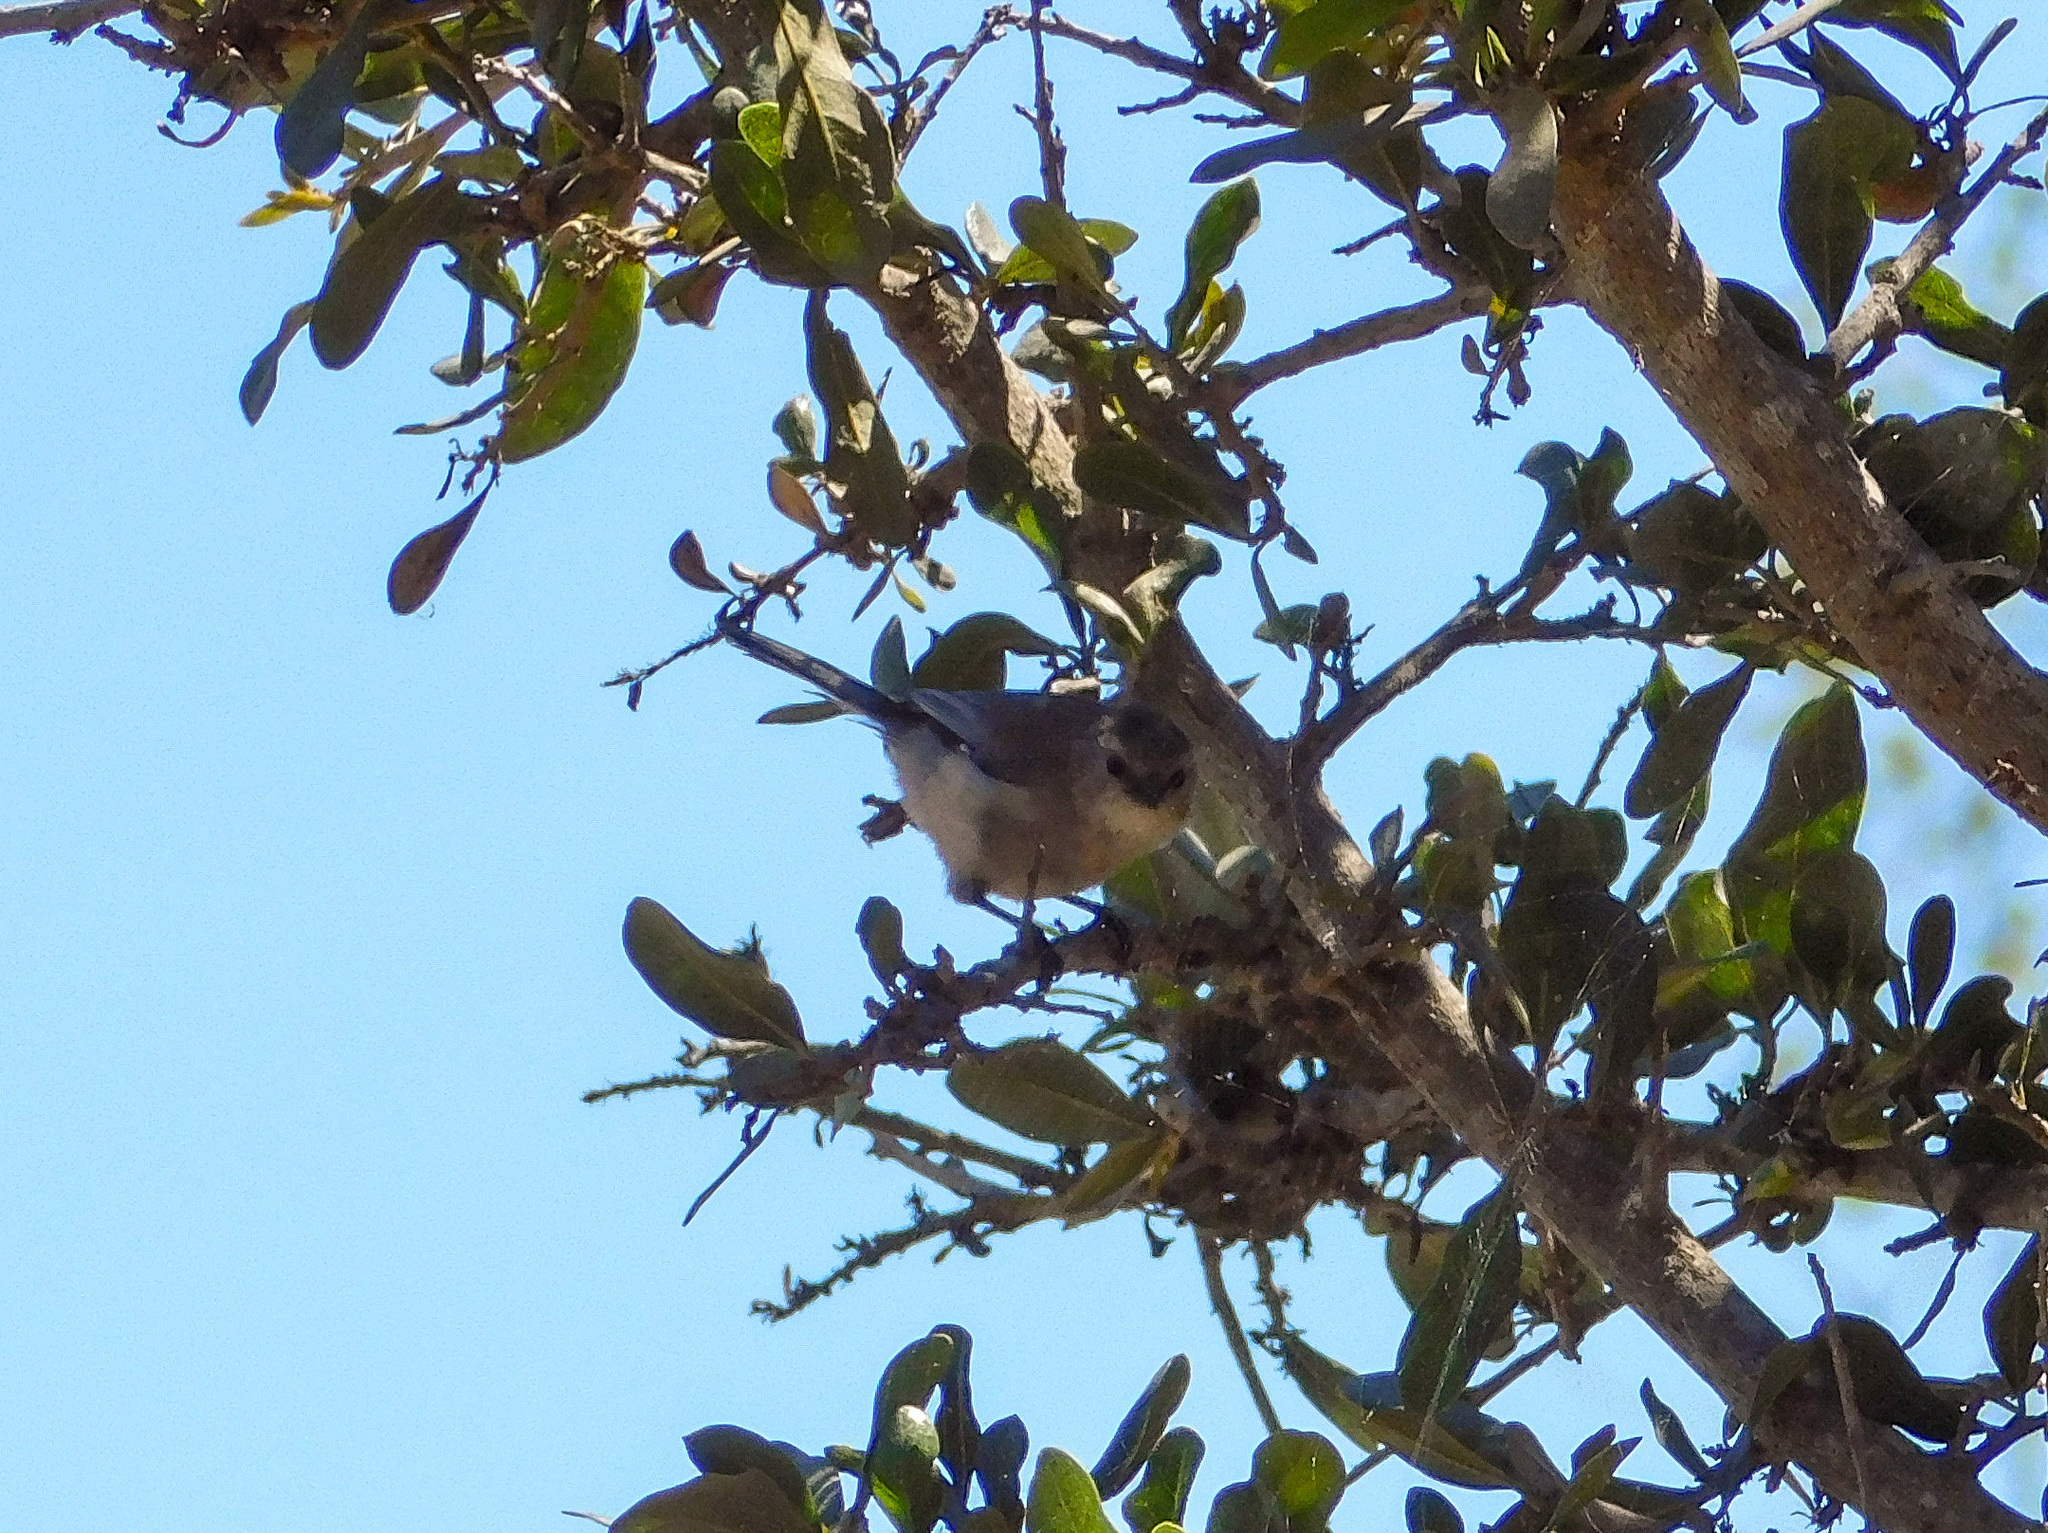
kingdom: Animalia
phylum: Chordata
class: Aves
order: Passeriformes
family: Aegithalidae
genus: Psaltriparus
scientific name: Psaltriparus minimus
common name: American bushtit
